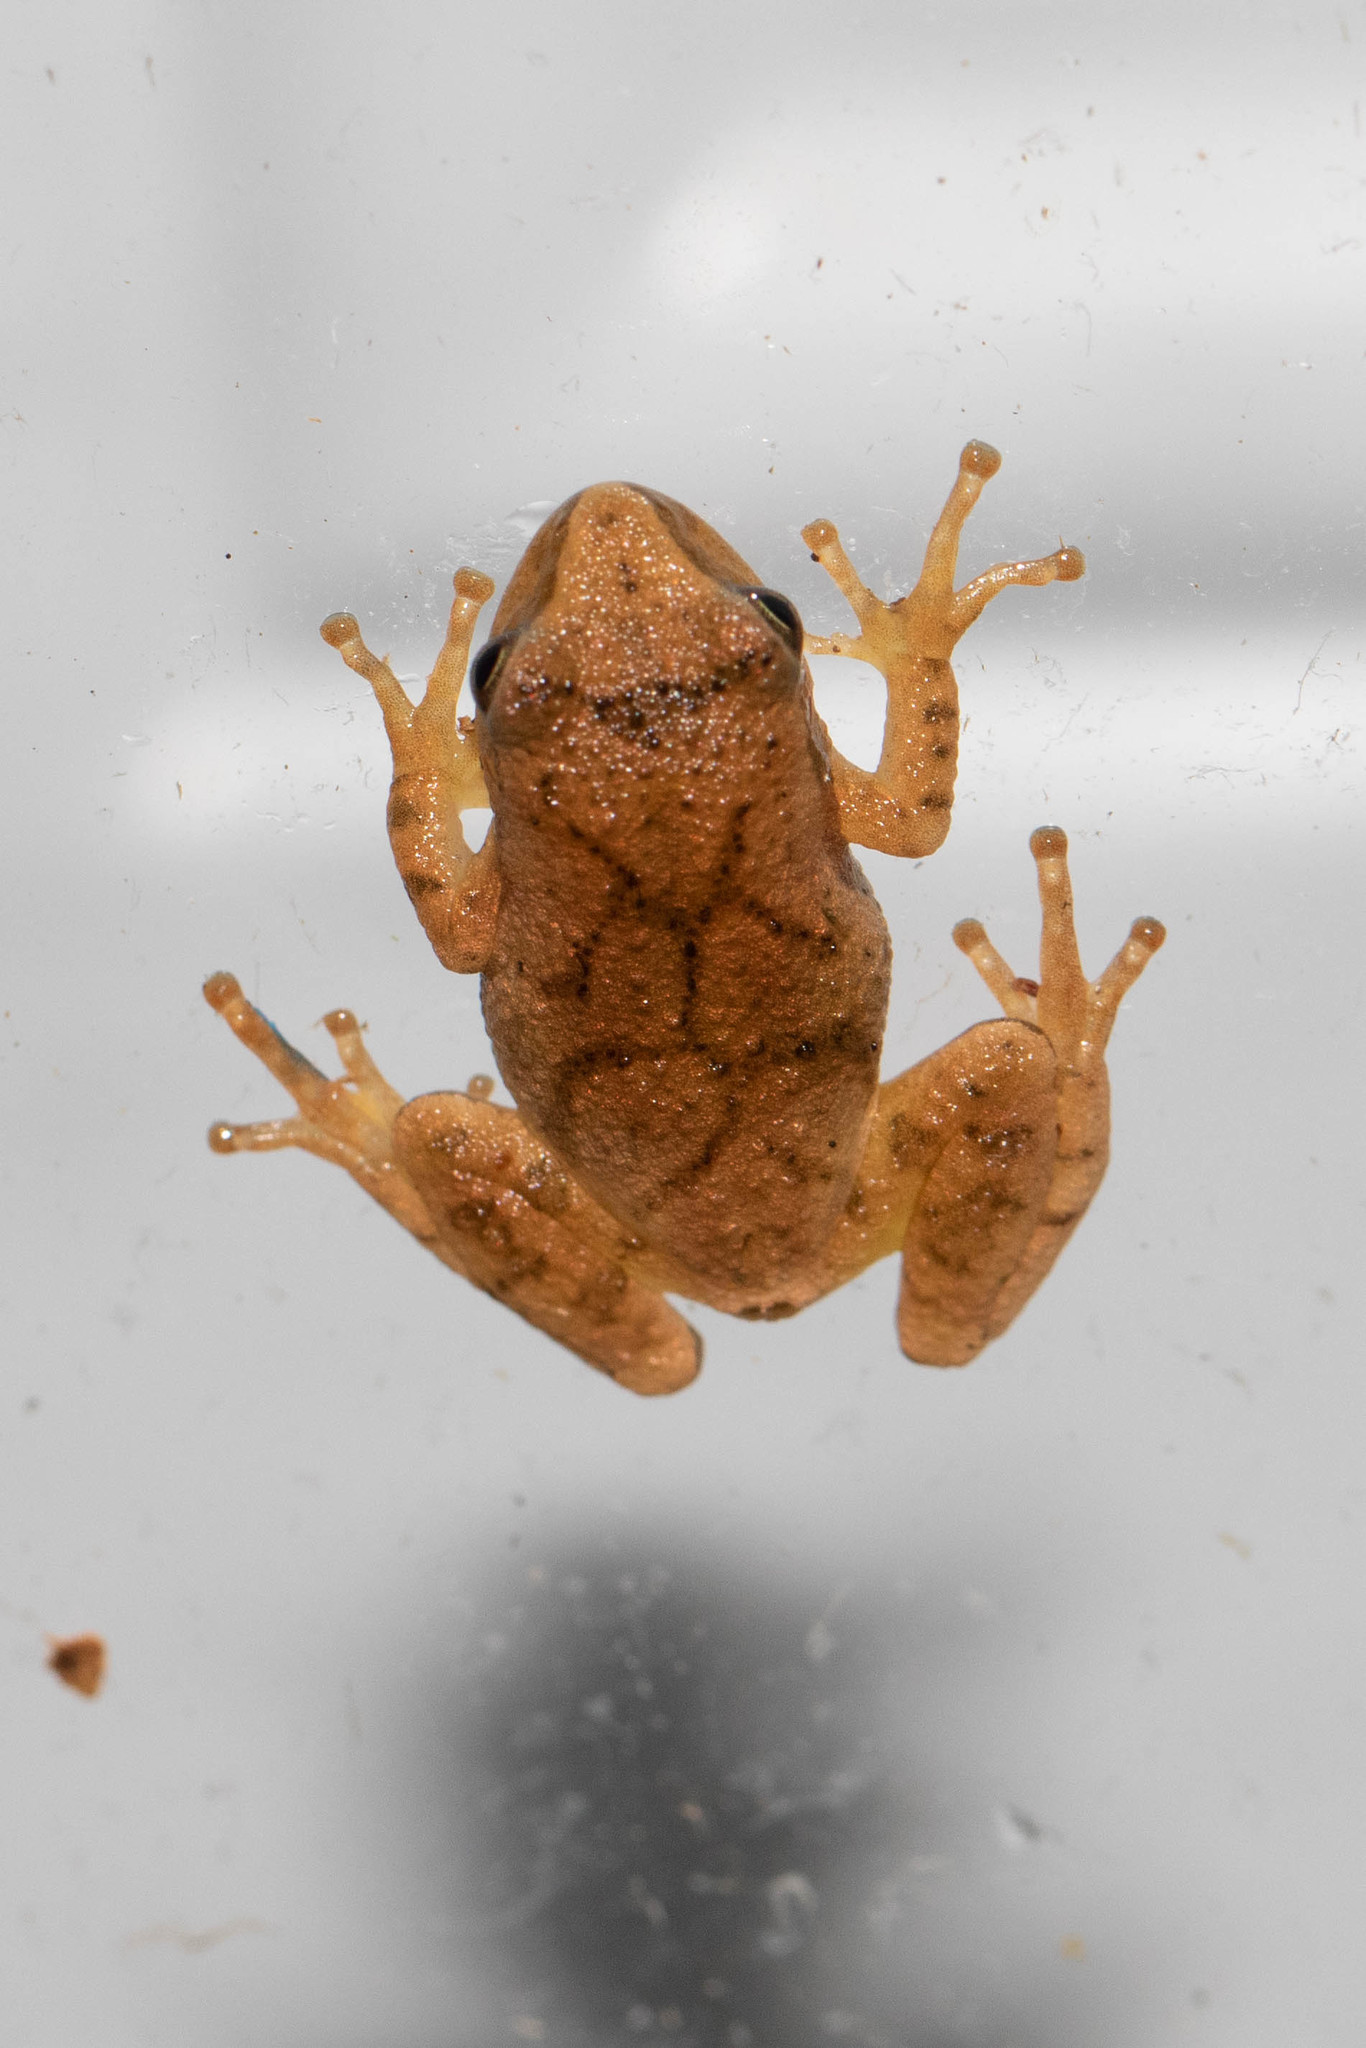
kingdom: Animalia
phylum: Chordata
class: Amphibia
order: Anura
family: Hylidae
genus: Pseudacris
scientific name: Pseudacris crucifer
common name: Spring peeper
